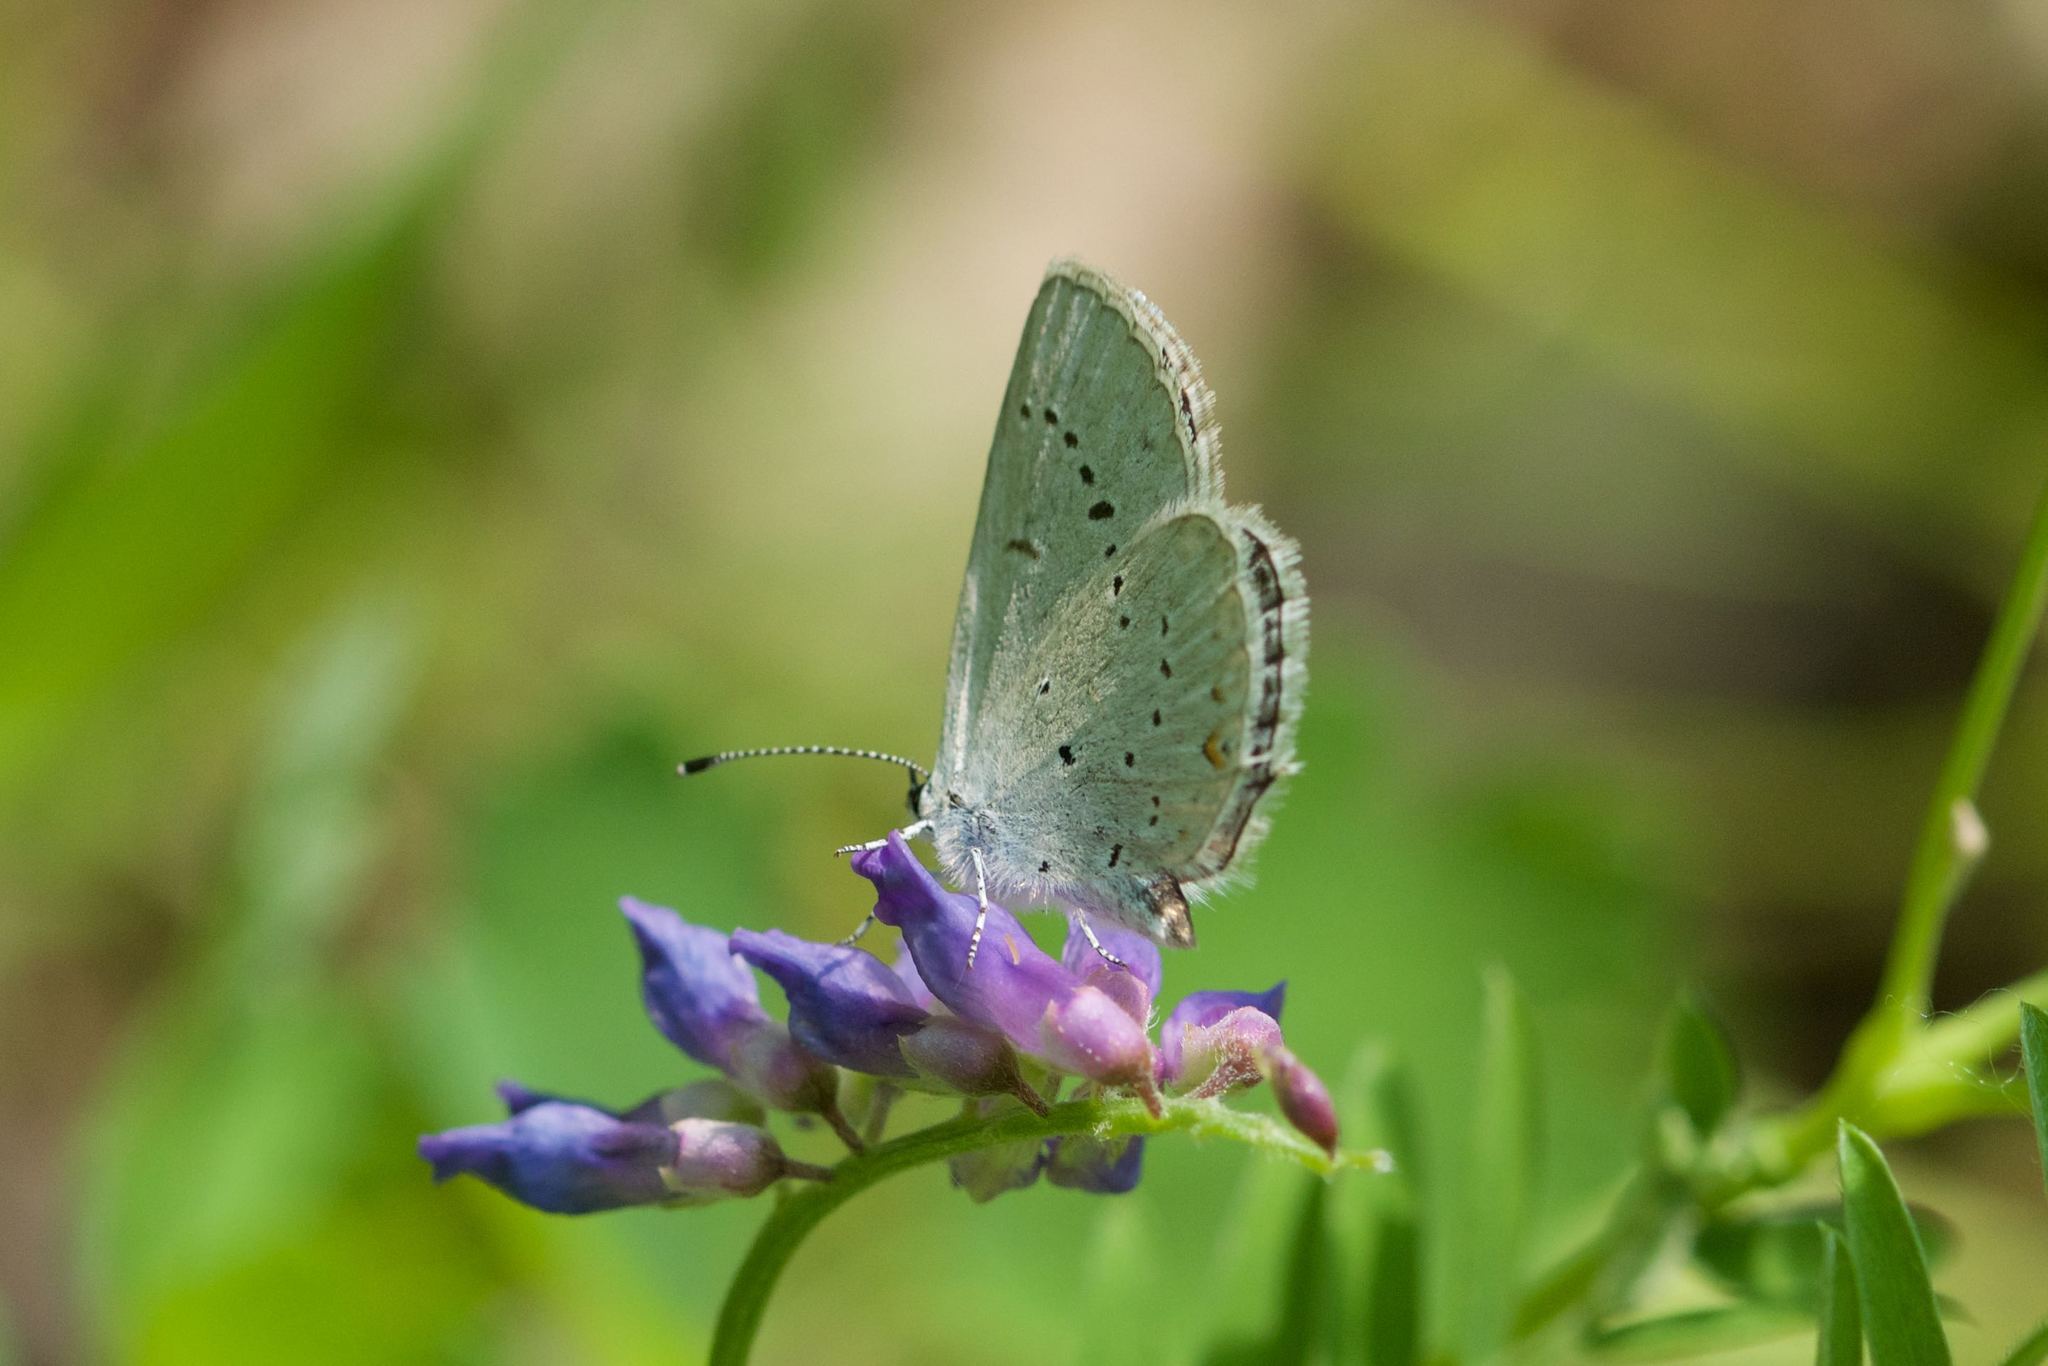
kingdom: Animalia
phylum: Arthropoda
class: Insecta
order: Lepidoptera
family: Lycaenidae
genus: Elkalyce
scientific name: Elkalyce amyntula
